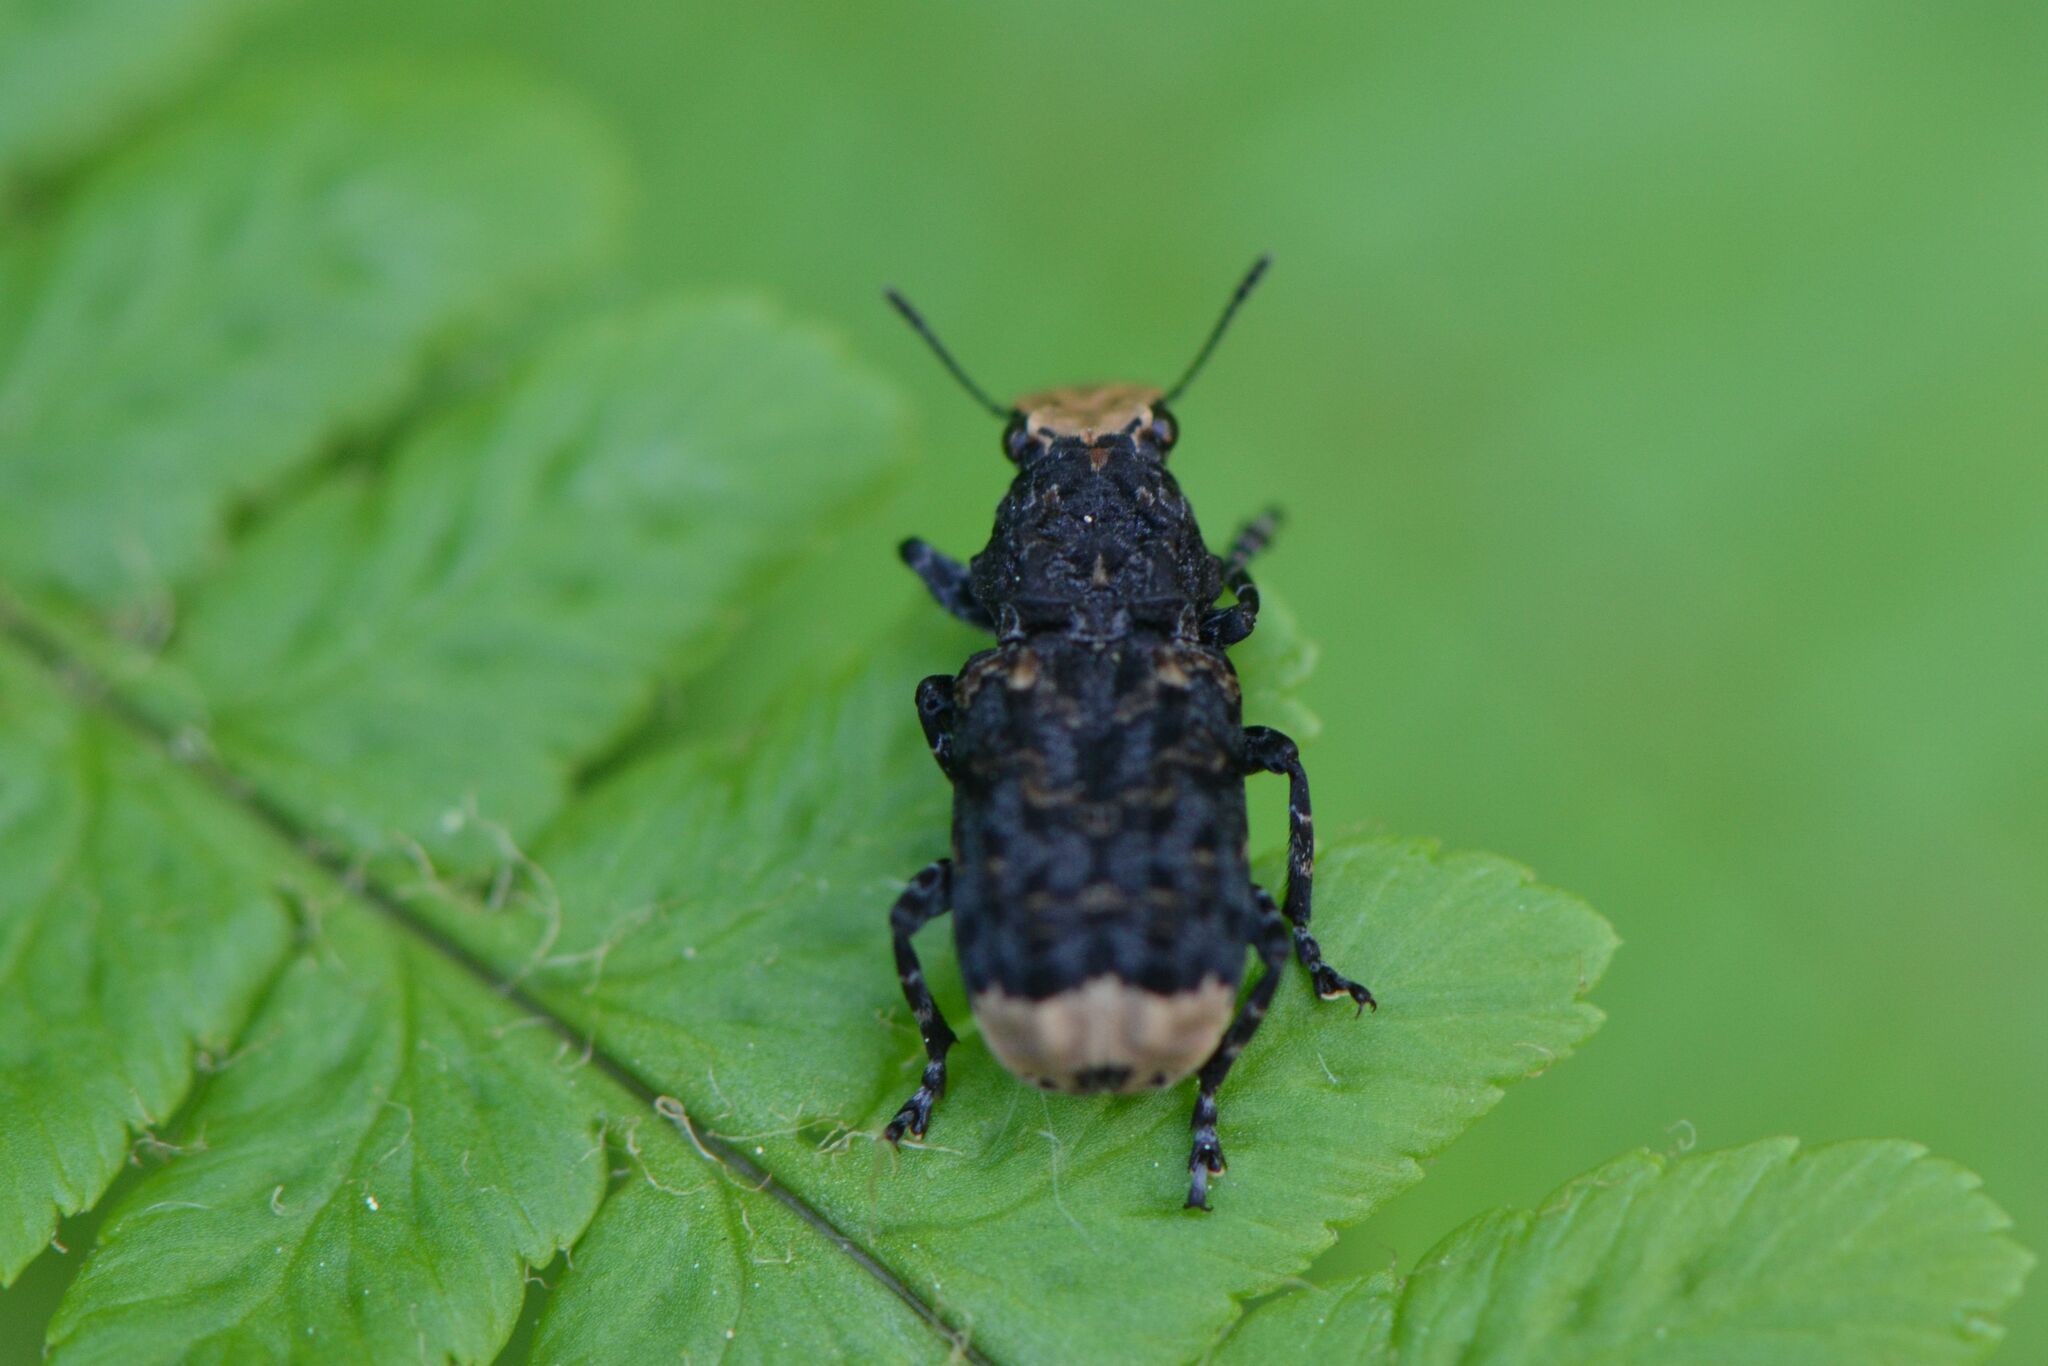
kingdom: Animalia
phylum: Arthropoda
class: Insecta
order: Coleoptera
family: Anthribidae
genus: Platyrhinus
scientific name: Platyrhinus resinosus
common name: Cramp-ball fungus weevil
